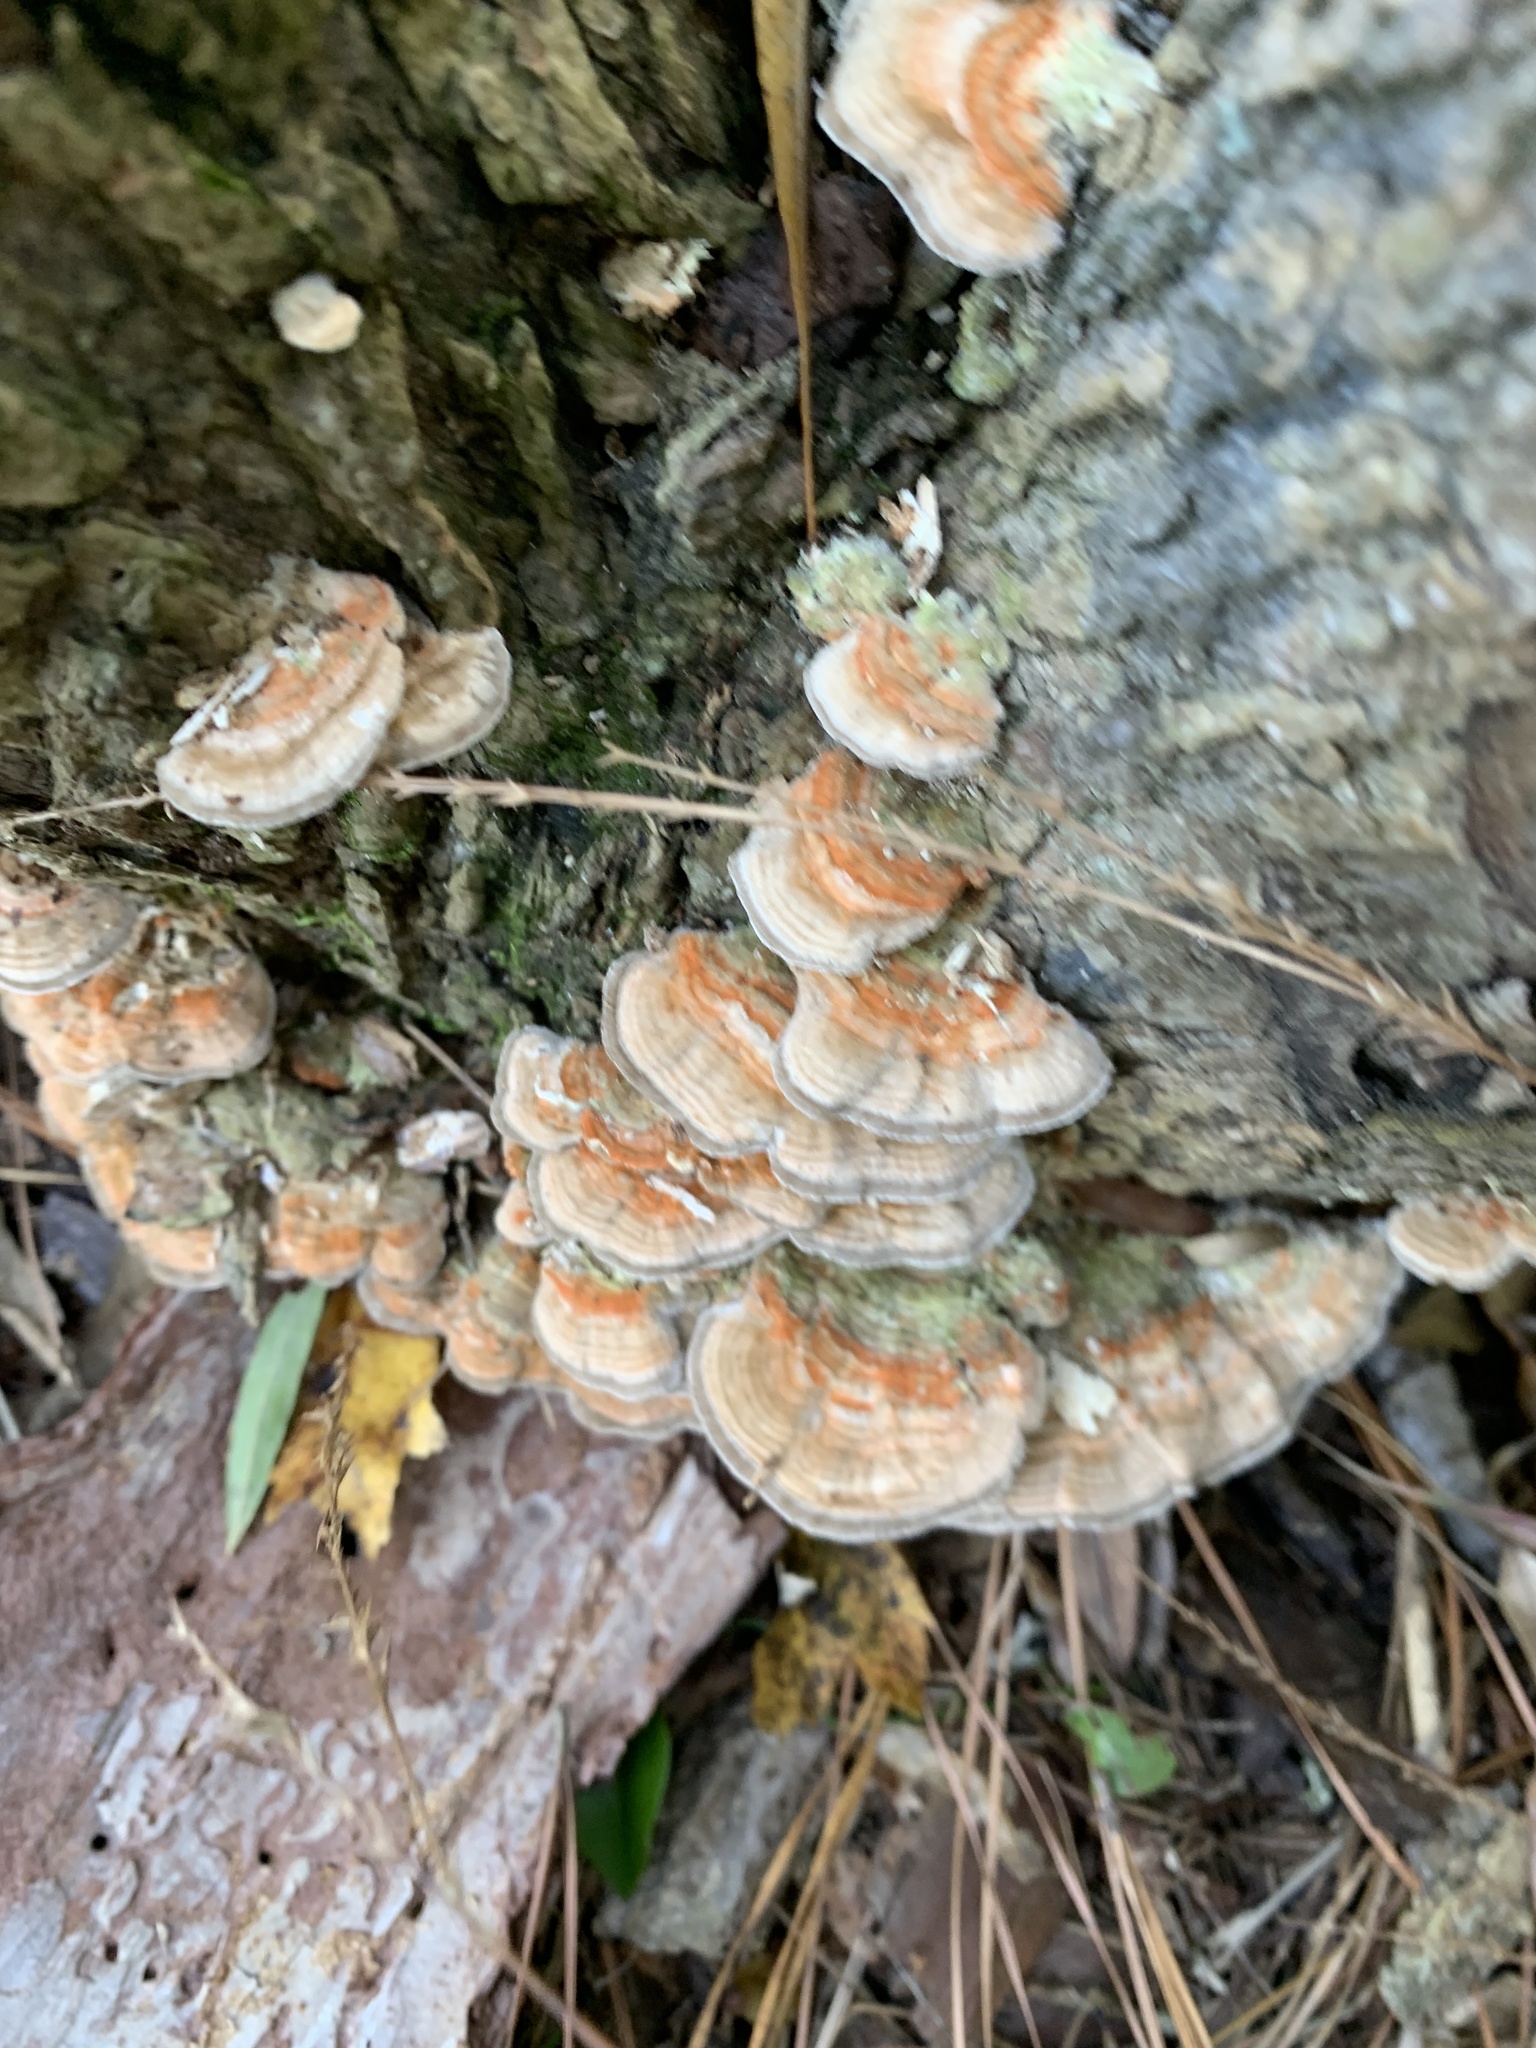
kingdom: Fungi
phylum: Basidiomycota
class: Agaricomycetes
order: Polyporales
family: Polyporaceae
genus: Lenzites
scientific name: Lenzites betulinus
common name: Birch mazegill
